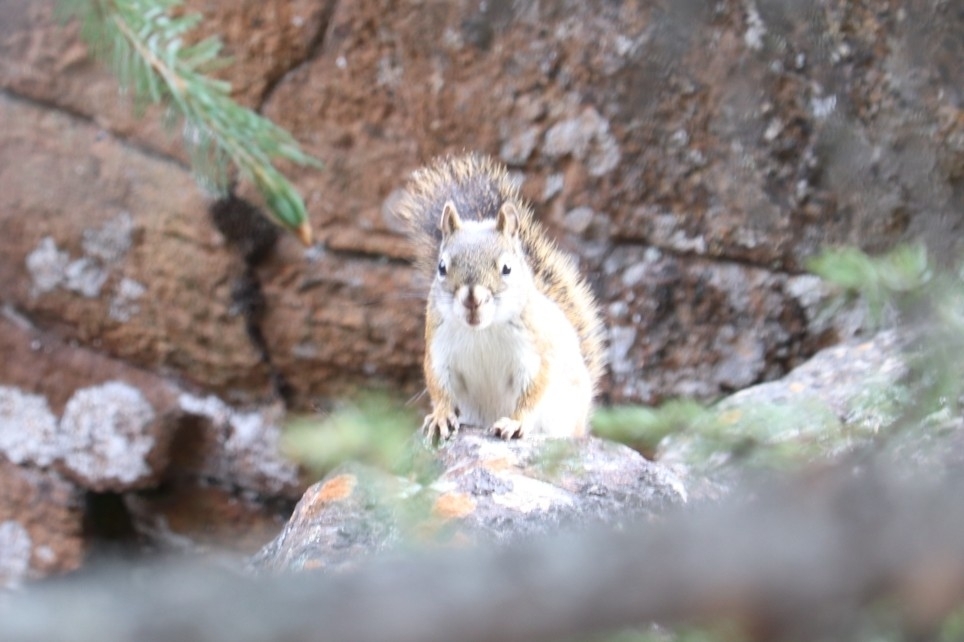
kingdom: Animalia
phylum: Chordata
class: Mammalia
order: Rodentia
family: Sciuridae
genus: Tamiasciurus
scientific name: Tamiasciurus hudsonicus
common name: Red squirrel
